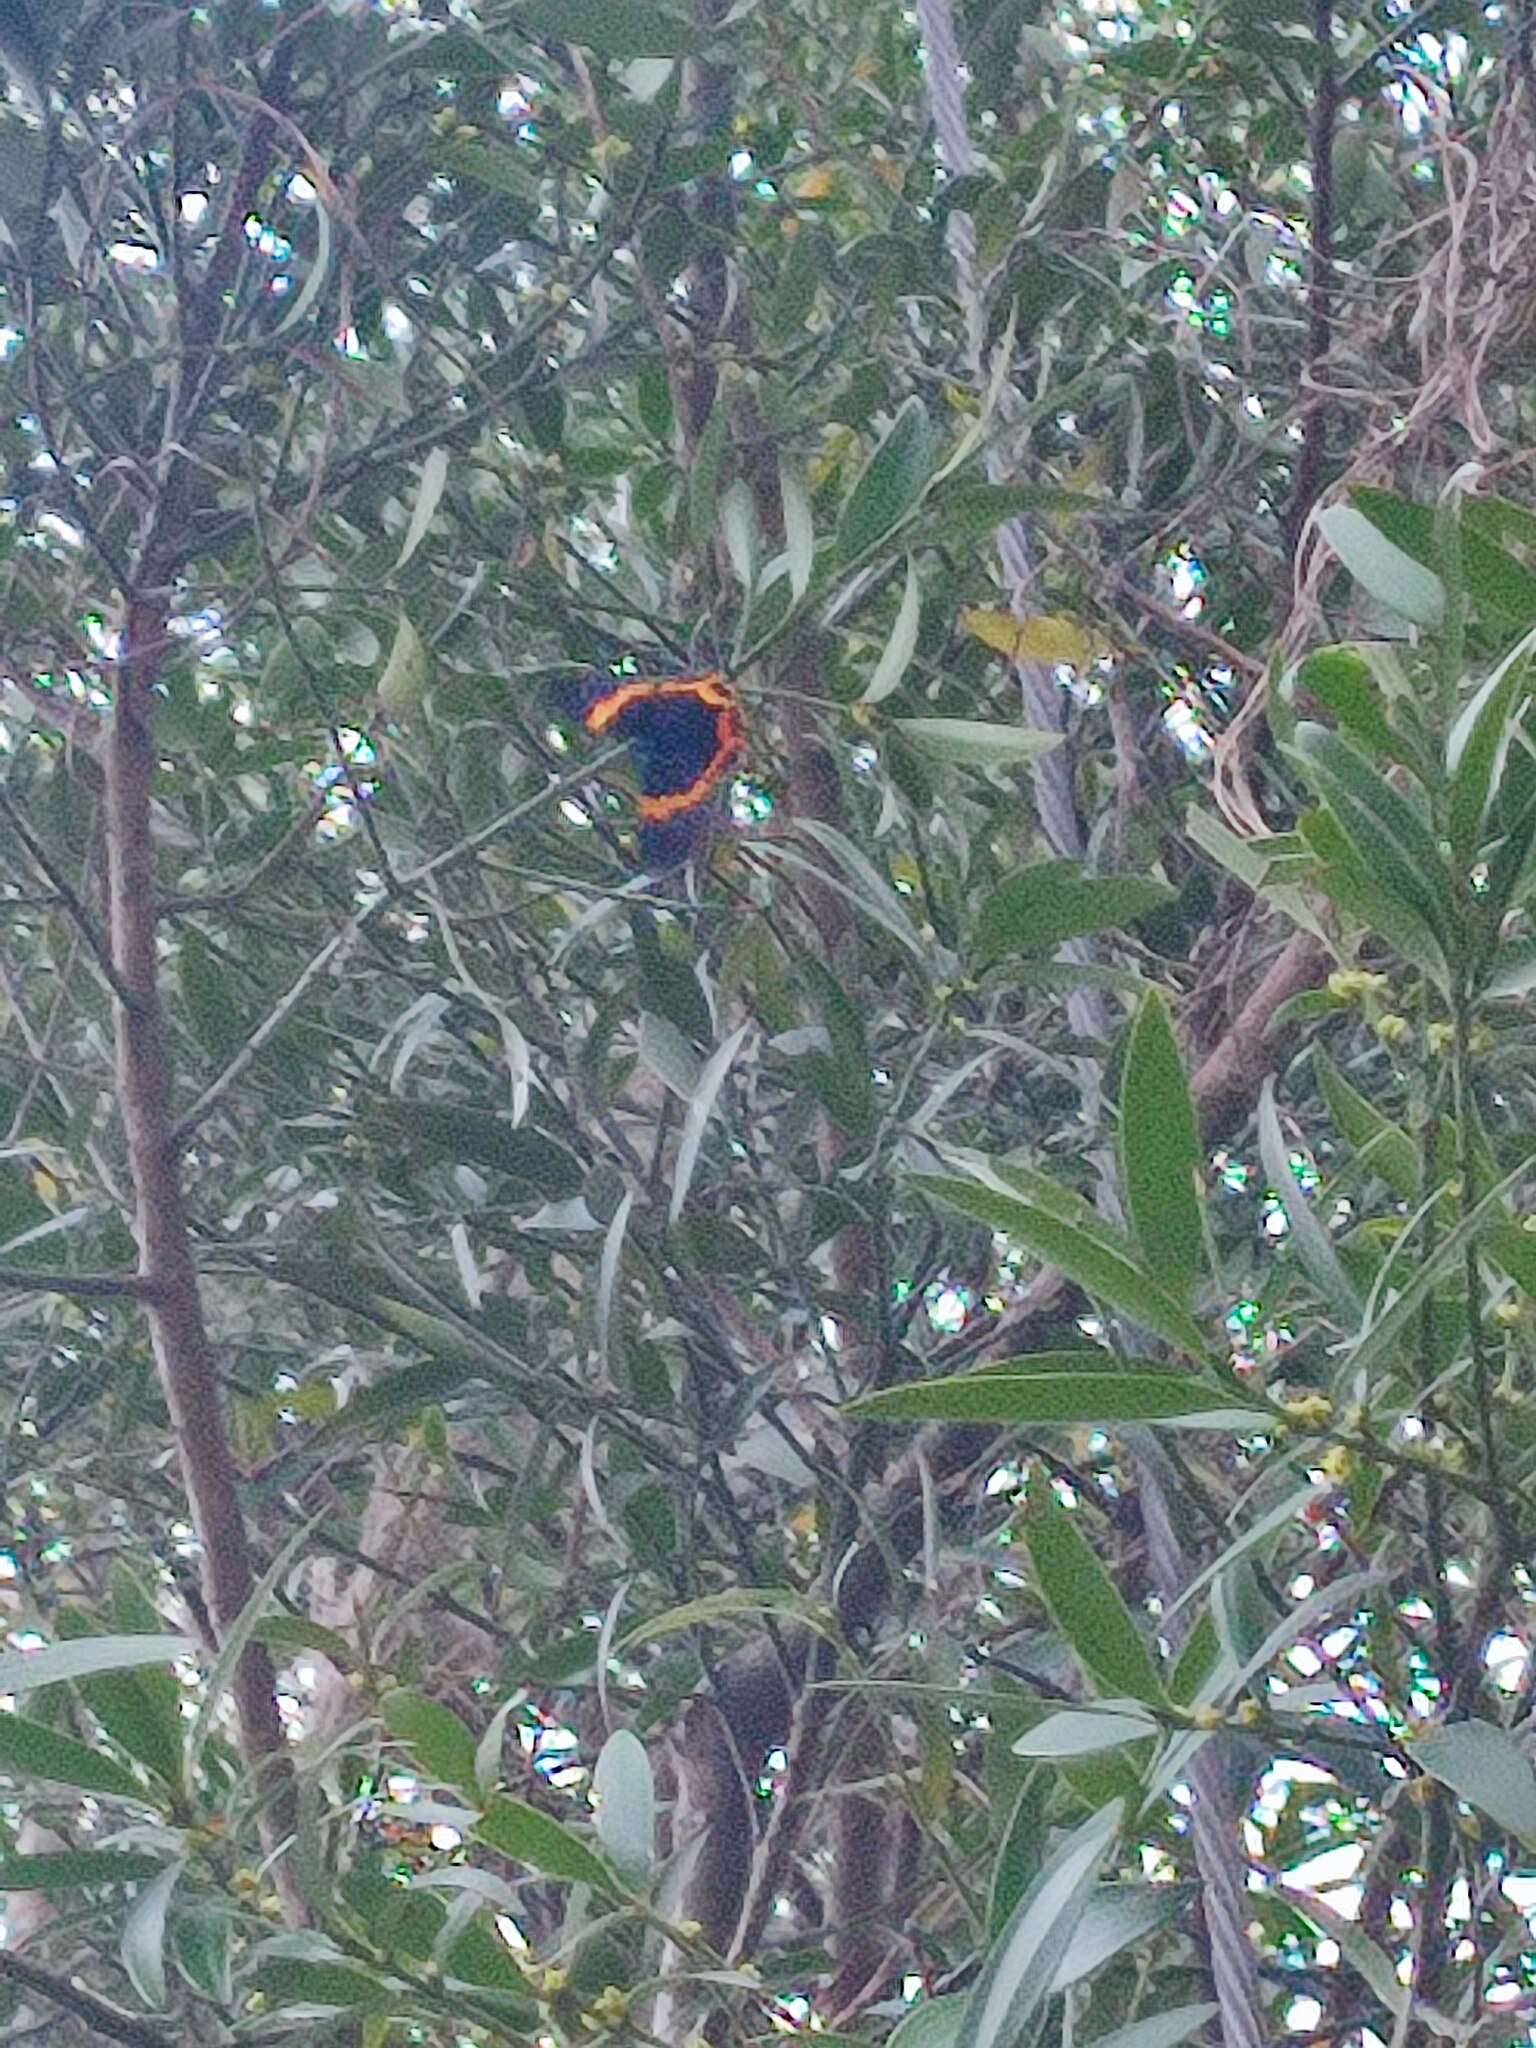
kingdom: Animalia
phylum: Arthropoda
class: Insecta
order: Lepidoptera
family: Geometridae
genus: Milionia
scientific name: Milionia basalis
